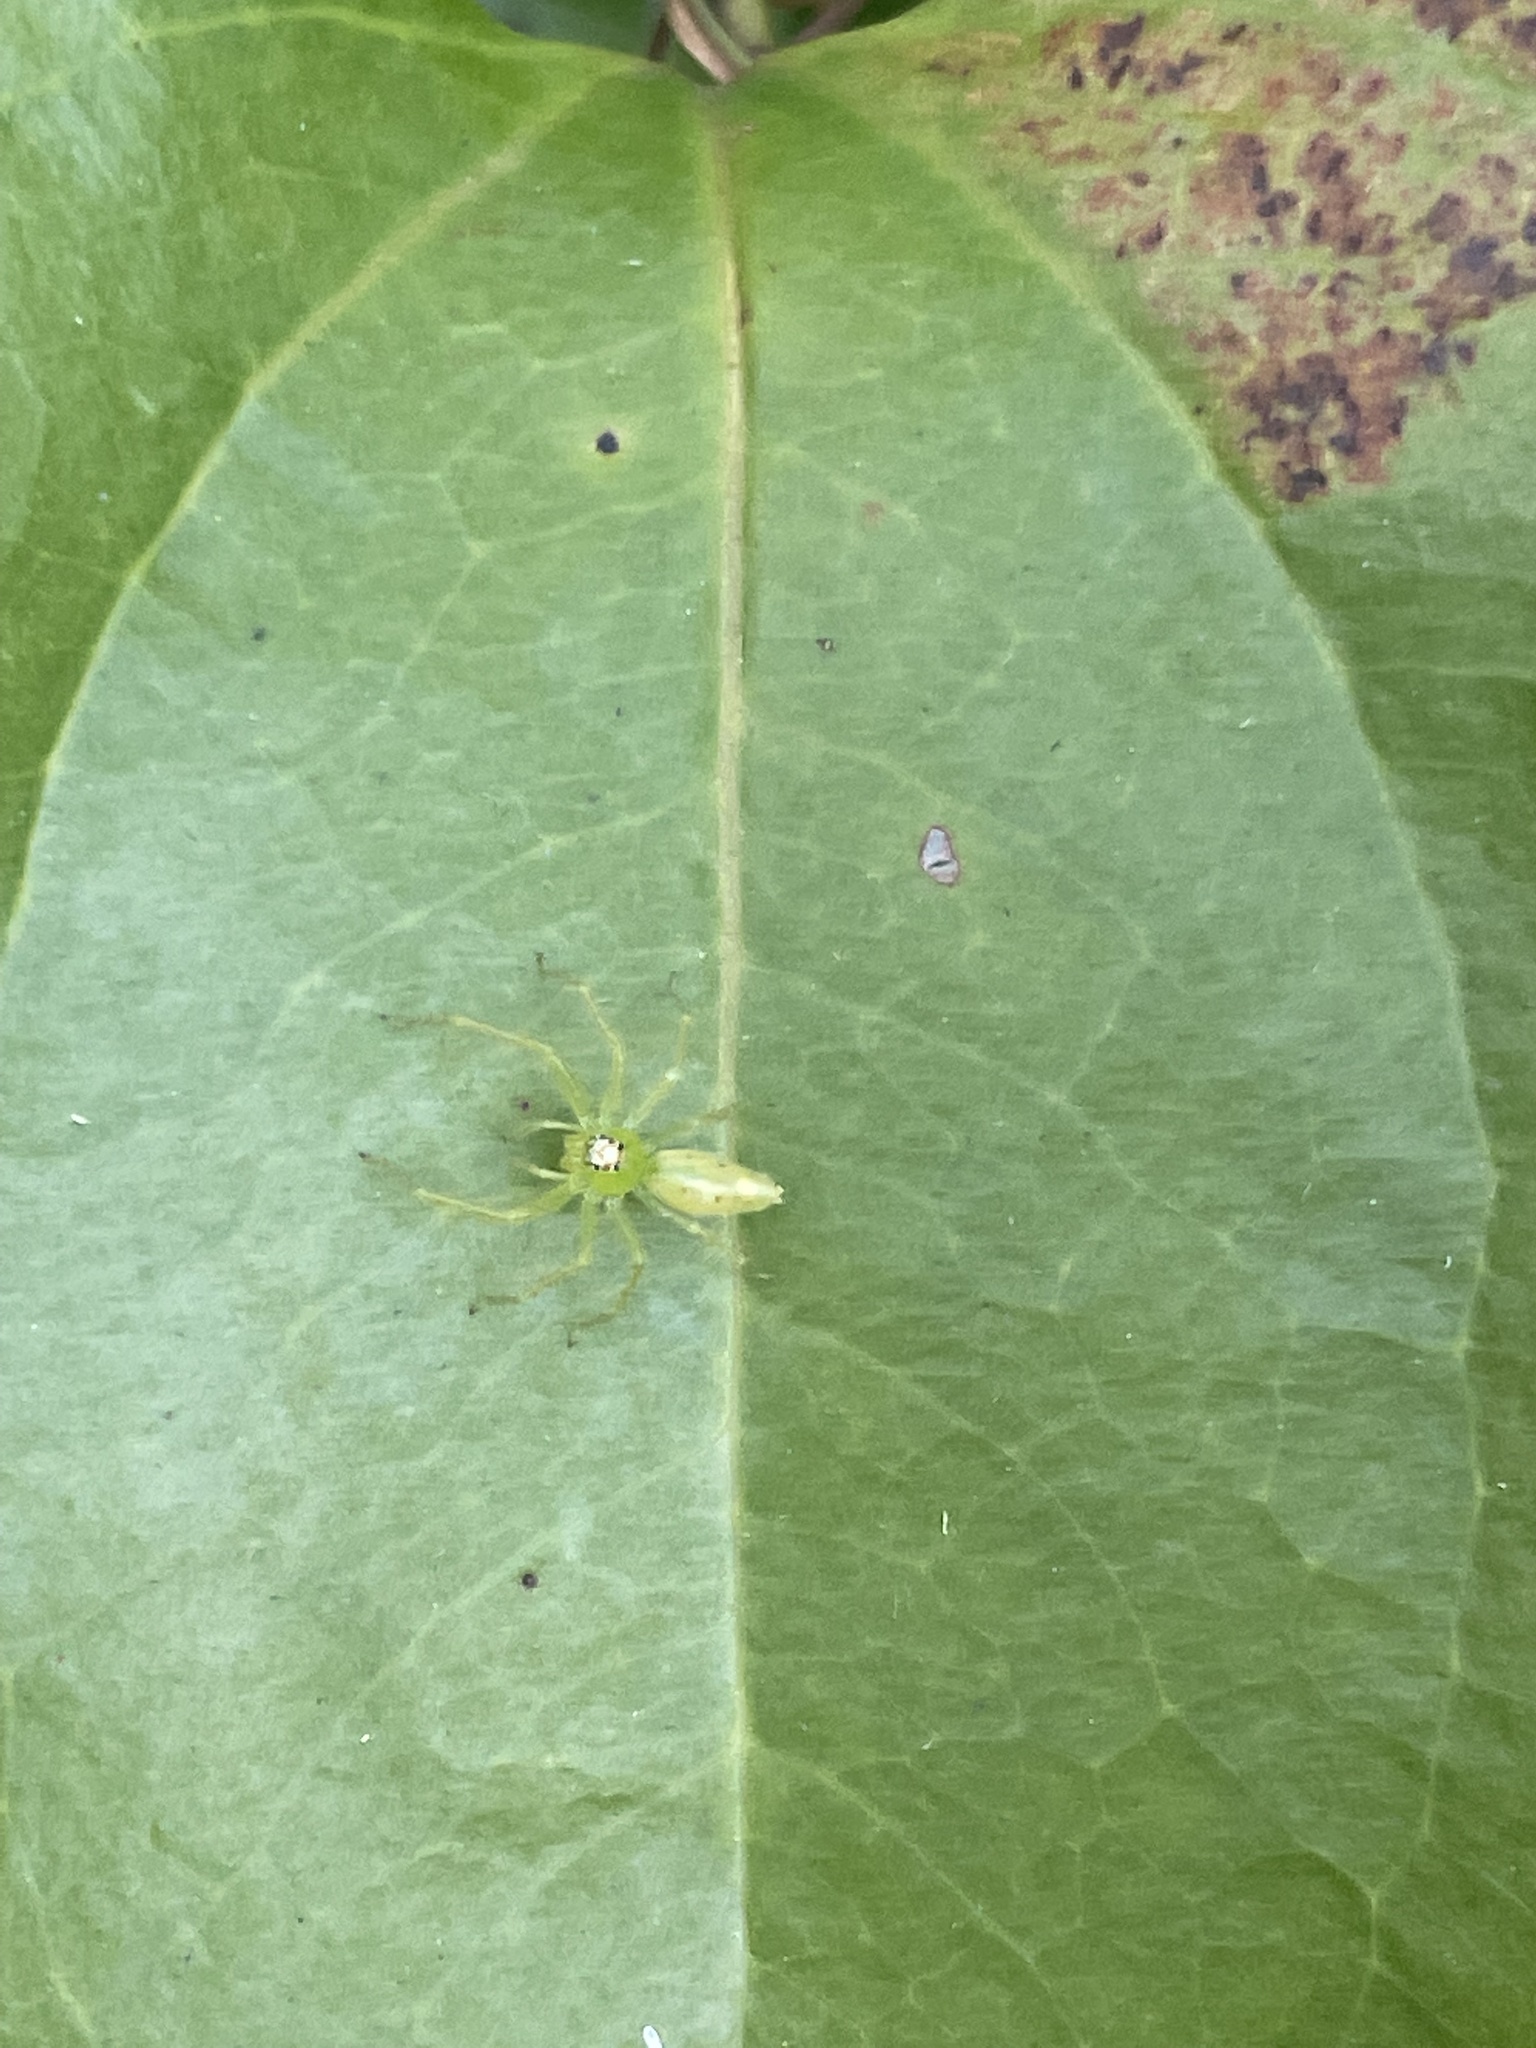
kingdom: Animalia
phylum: Arthropoda
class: Arachnida
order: Araneae
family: Salticidae
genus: Lyssomanes
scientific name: Lyssomanes viridis
